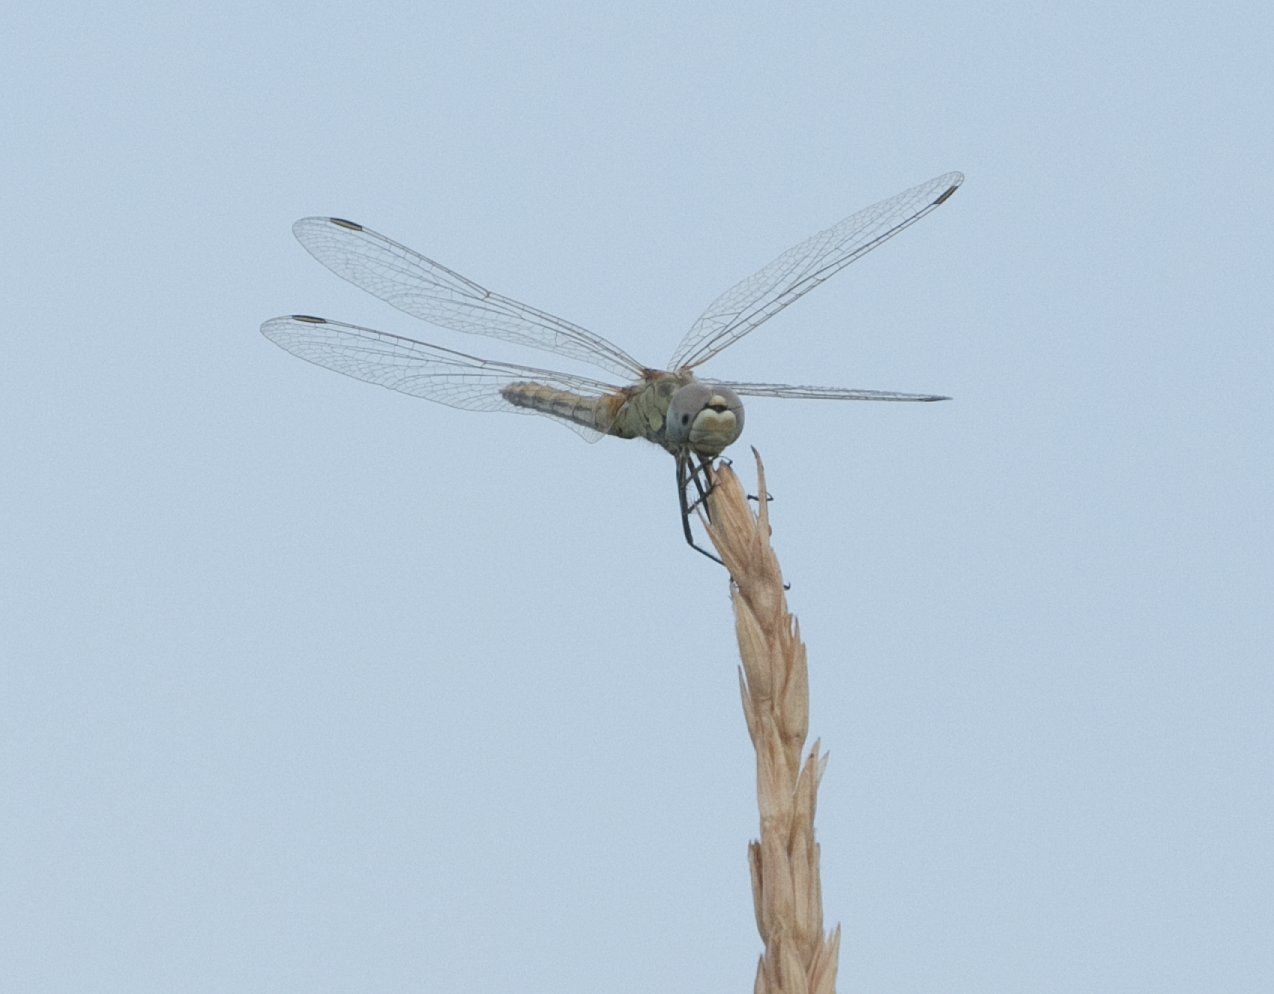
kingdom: Animalia
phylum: Arthropoda
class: Insecta
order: Odonata
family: Libellulidae
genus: Sympetrum
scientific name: Sympetrum fonscolombii
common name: Red-veined darter
